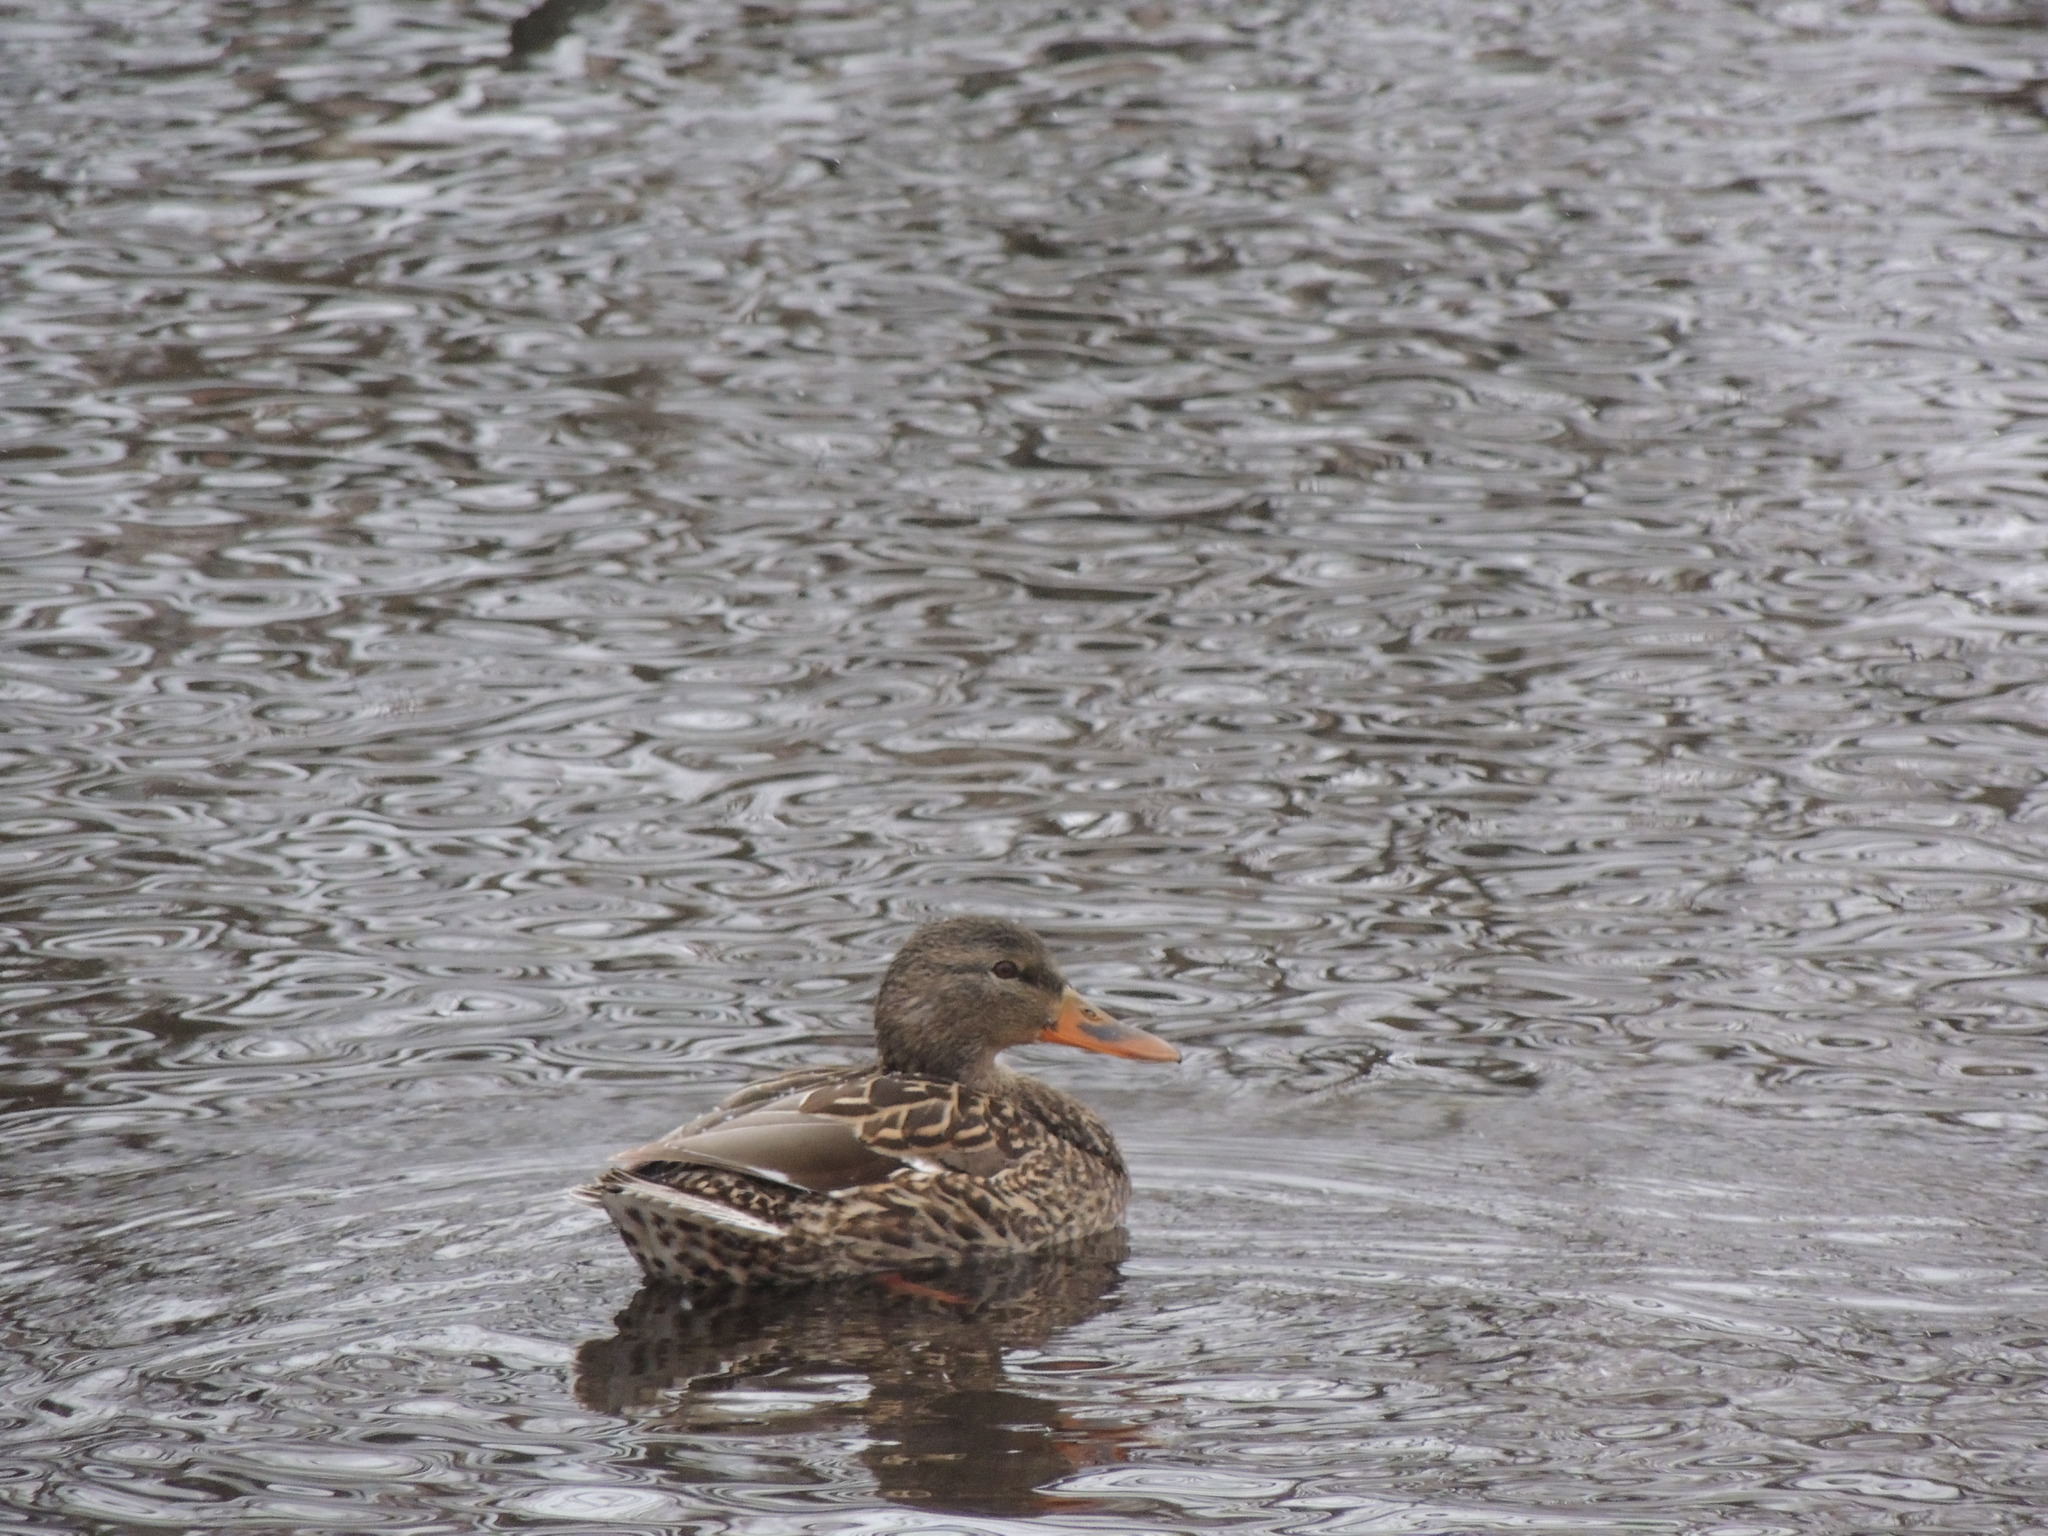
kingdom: Animalia
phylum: Chordata
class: Aves
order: Anseriformes
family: Anatidae
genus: Anas
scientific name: Anas platyrhynchos
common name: Mallard
